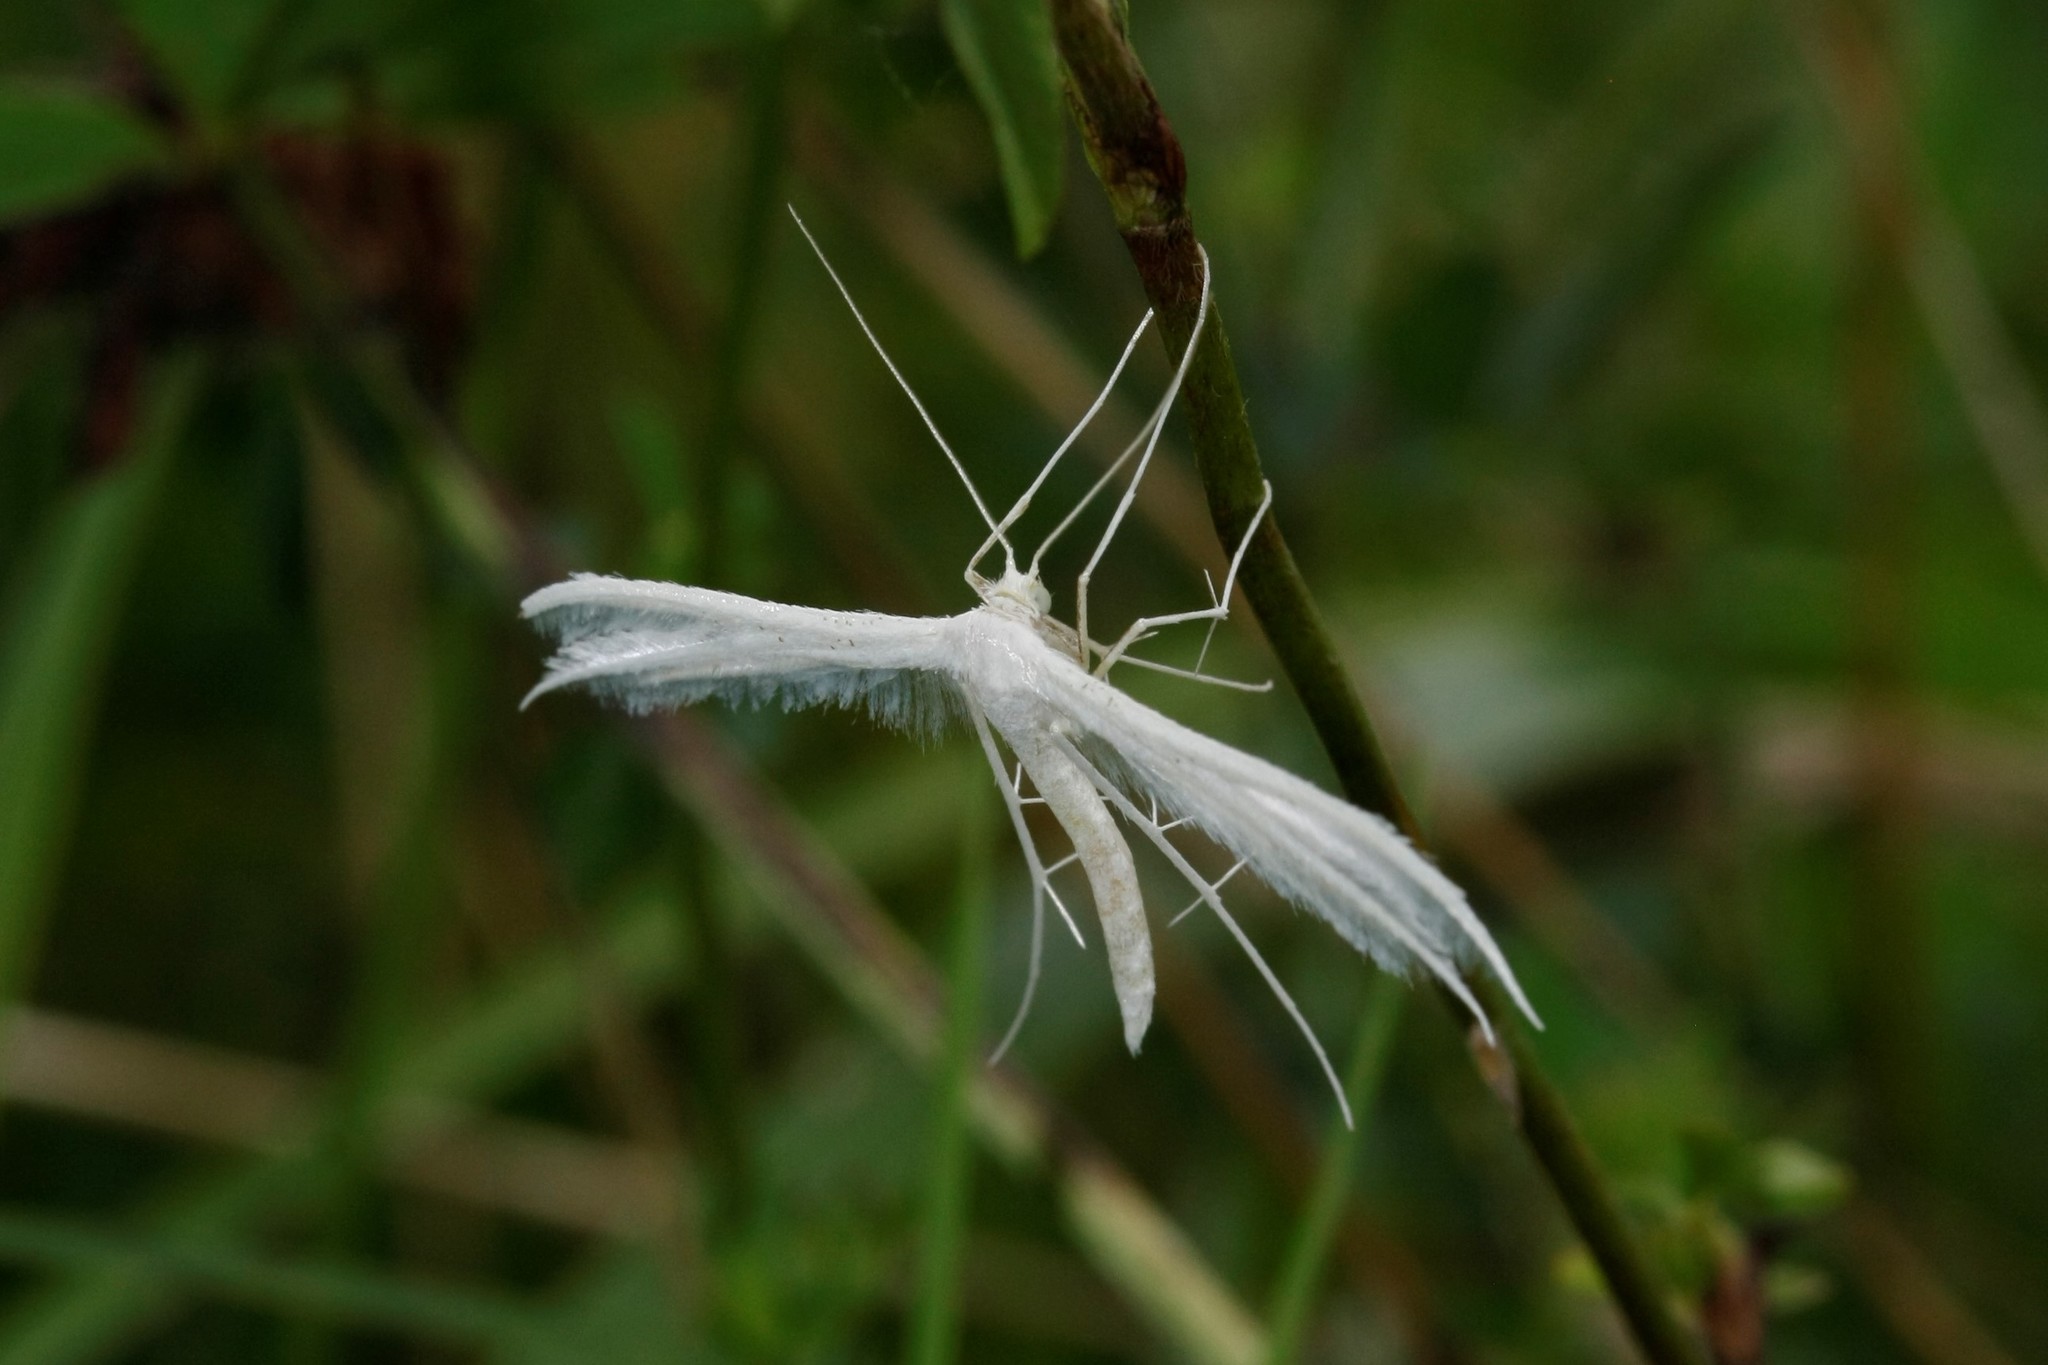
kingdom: Animalia
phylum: Arthropoda
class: Insecta
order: Lepidoptera
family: Pterophoridae
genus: Pterophorus
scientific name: Pterophorus pentadactyla
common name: White plume moth
